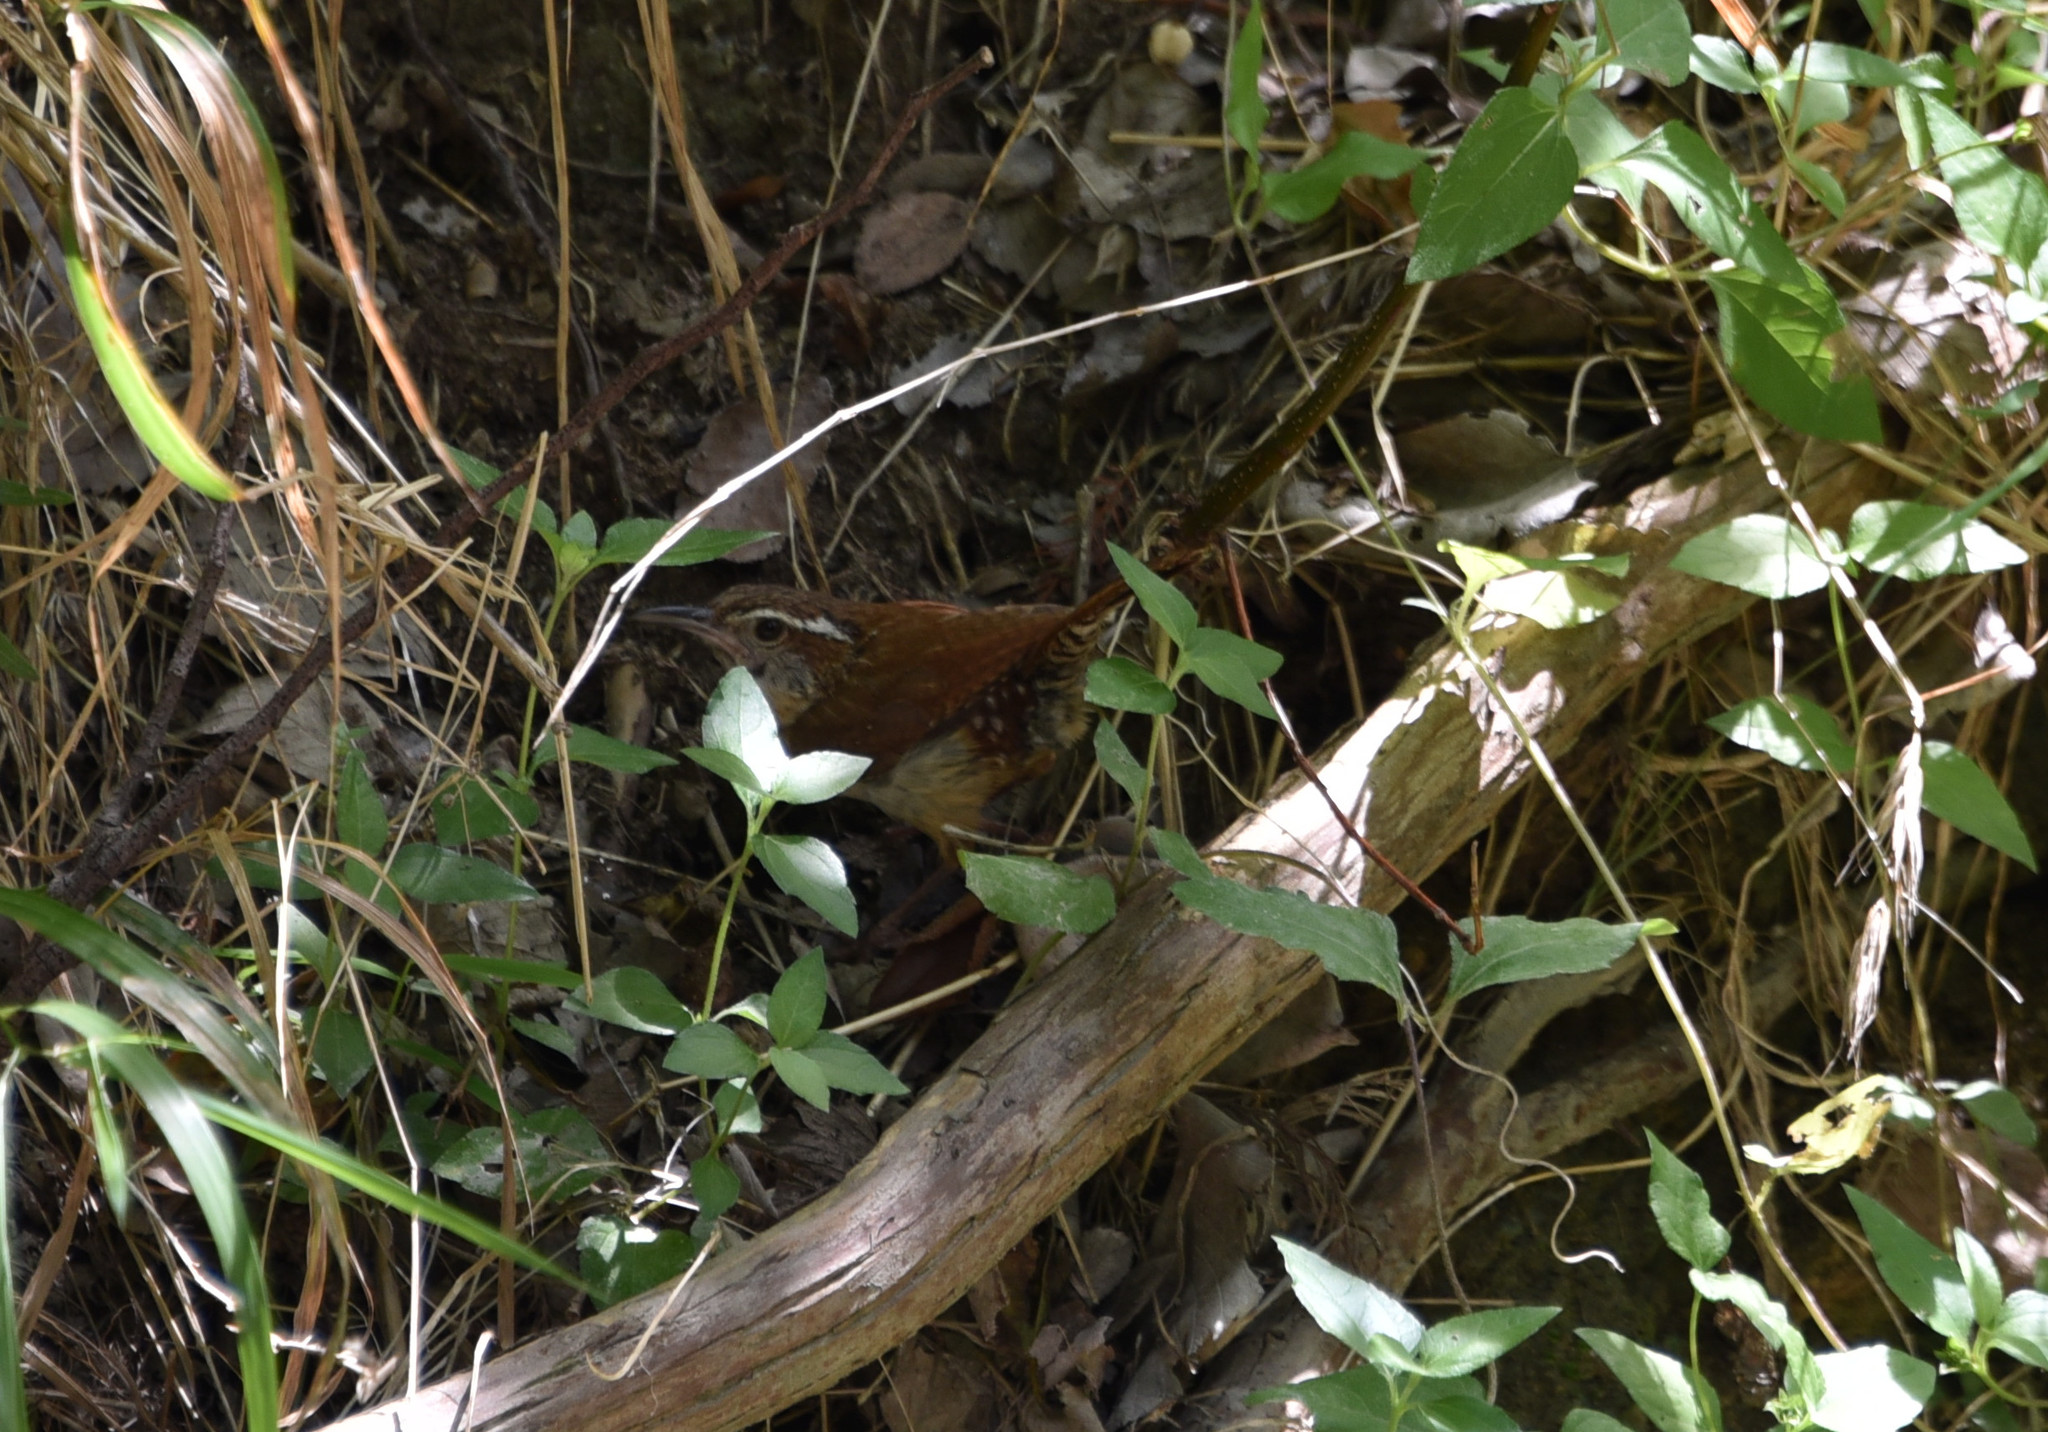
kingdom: Animalia
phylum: Chordata
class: Aves
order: Passeriformes
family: Troglodytidae
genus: Thryothorus
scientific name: Thryothorus ludovicianus
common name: Carolina wren
